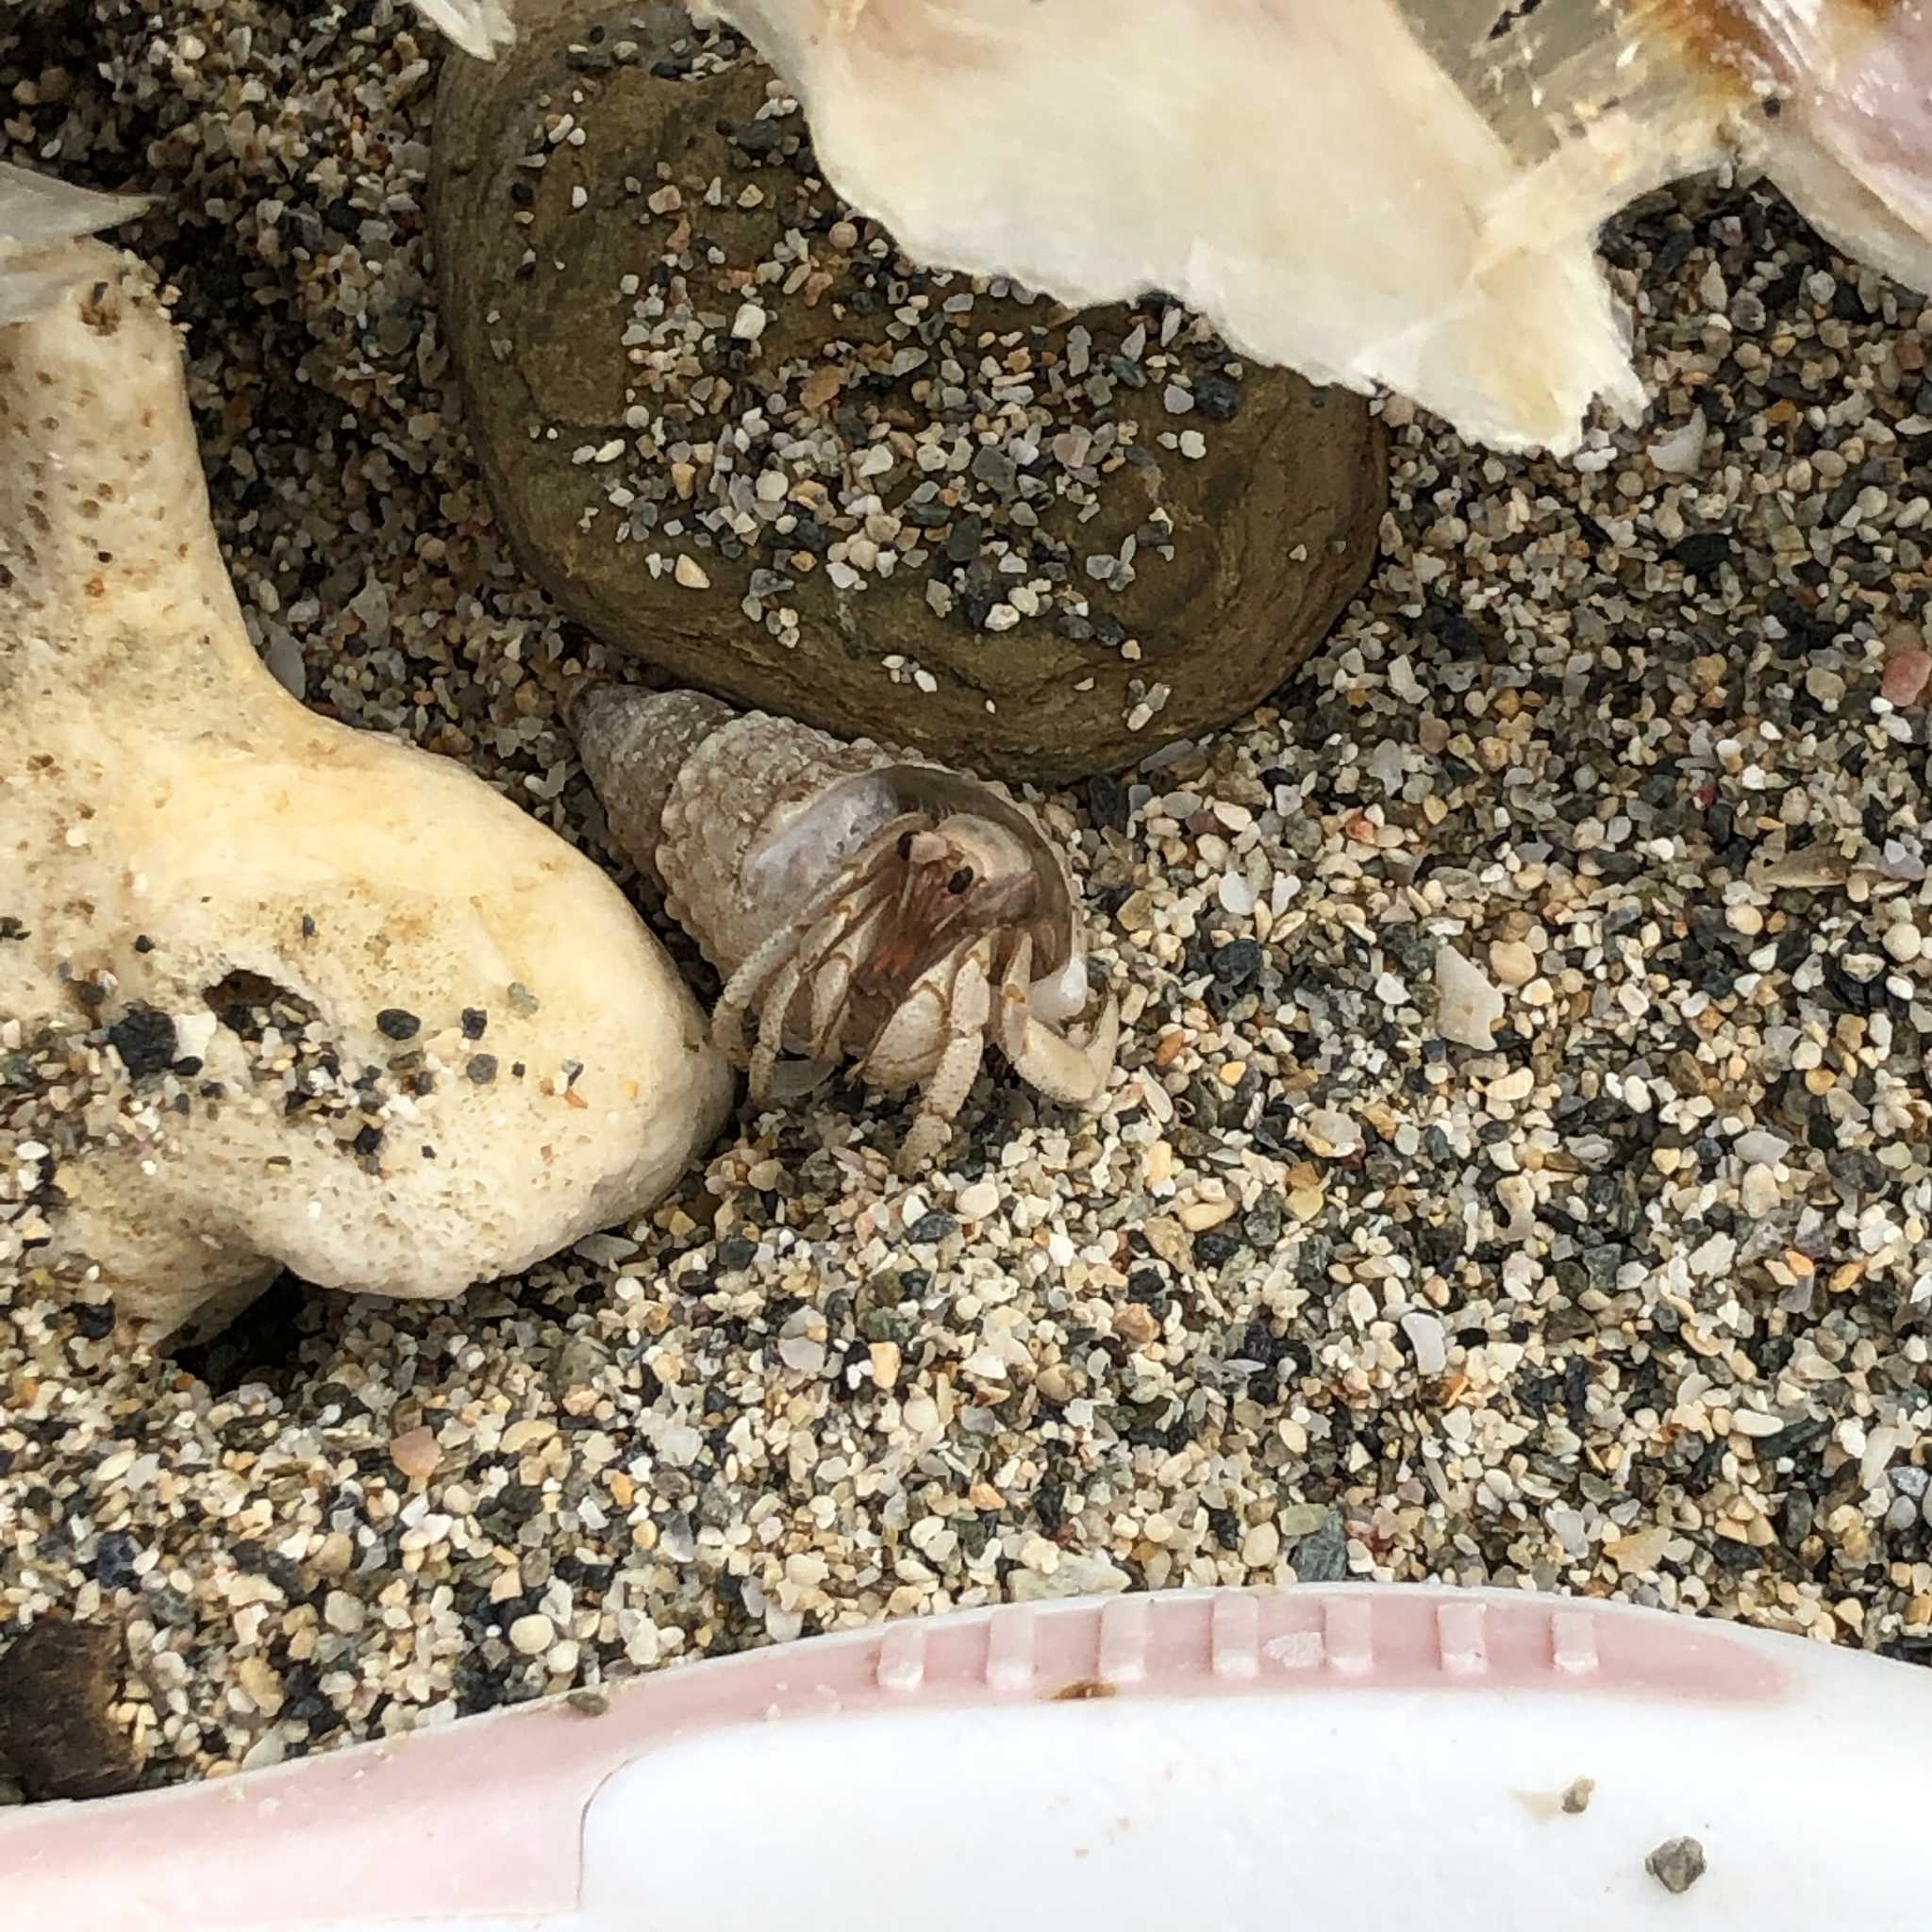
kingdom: Animalia
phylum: Arthropoda
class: Malacostraca
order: Decapoda
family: Coenobitidae
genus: Coenobita
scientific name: Coenobita purpureus
